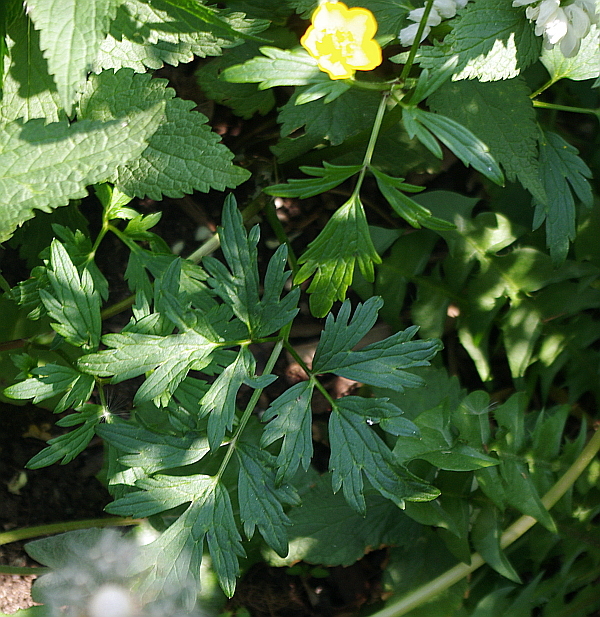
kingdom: Plantae
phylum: Tracheophyta
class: Magnoliopsida
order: Ranunculales
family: Ranunculaceae
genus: Ranunculus
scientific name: Ranunculus repens
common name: Creeping buttercup
